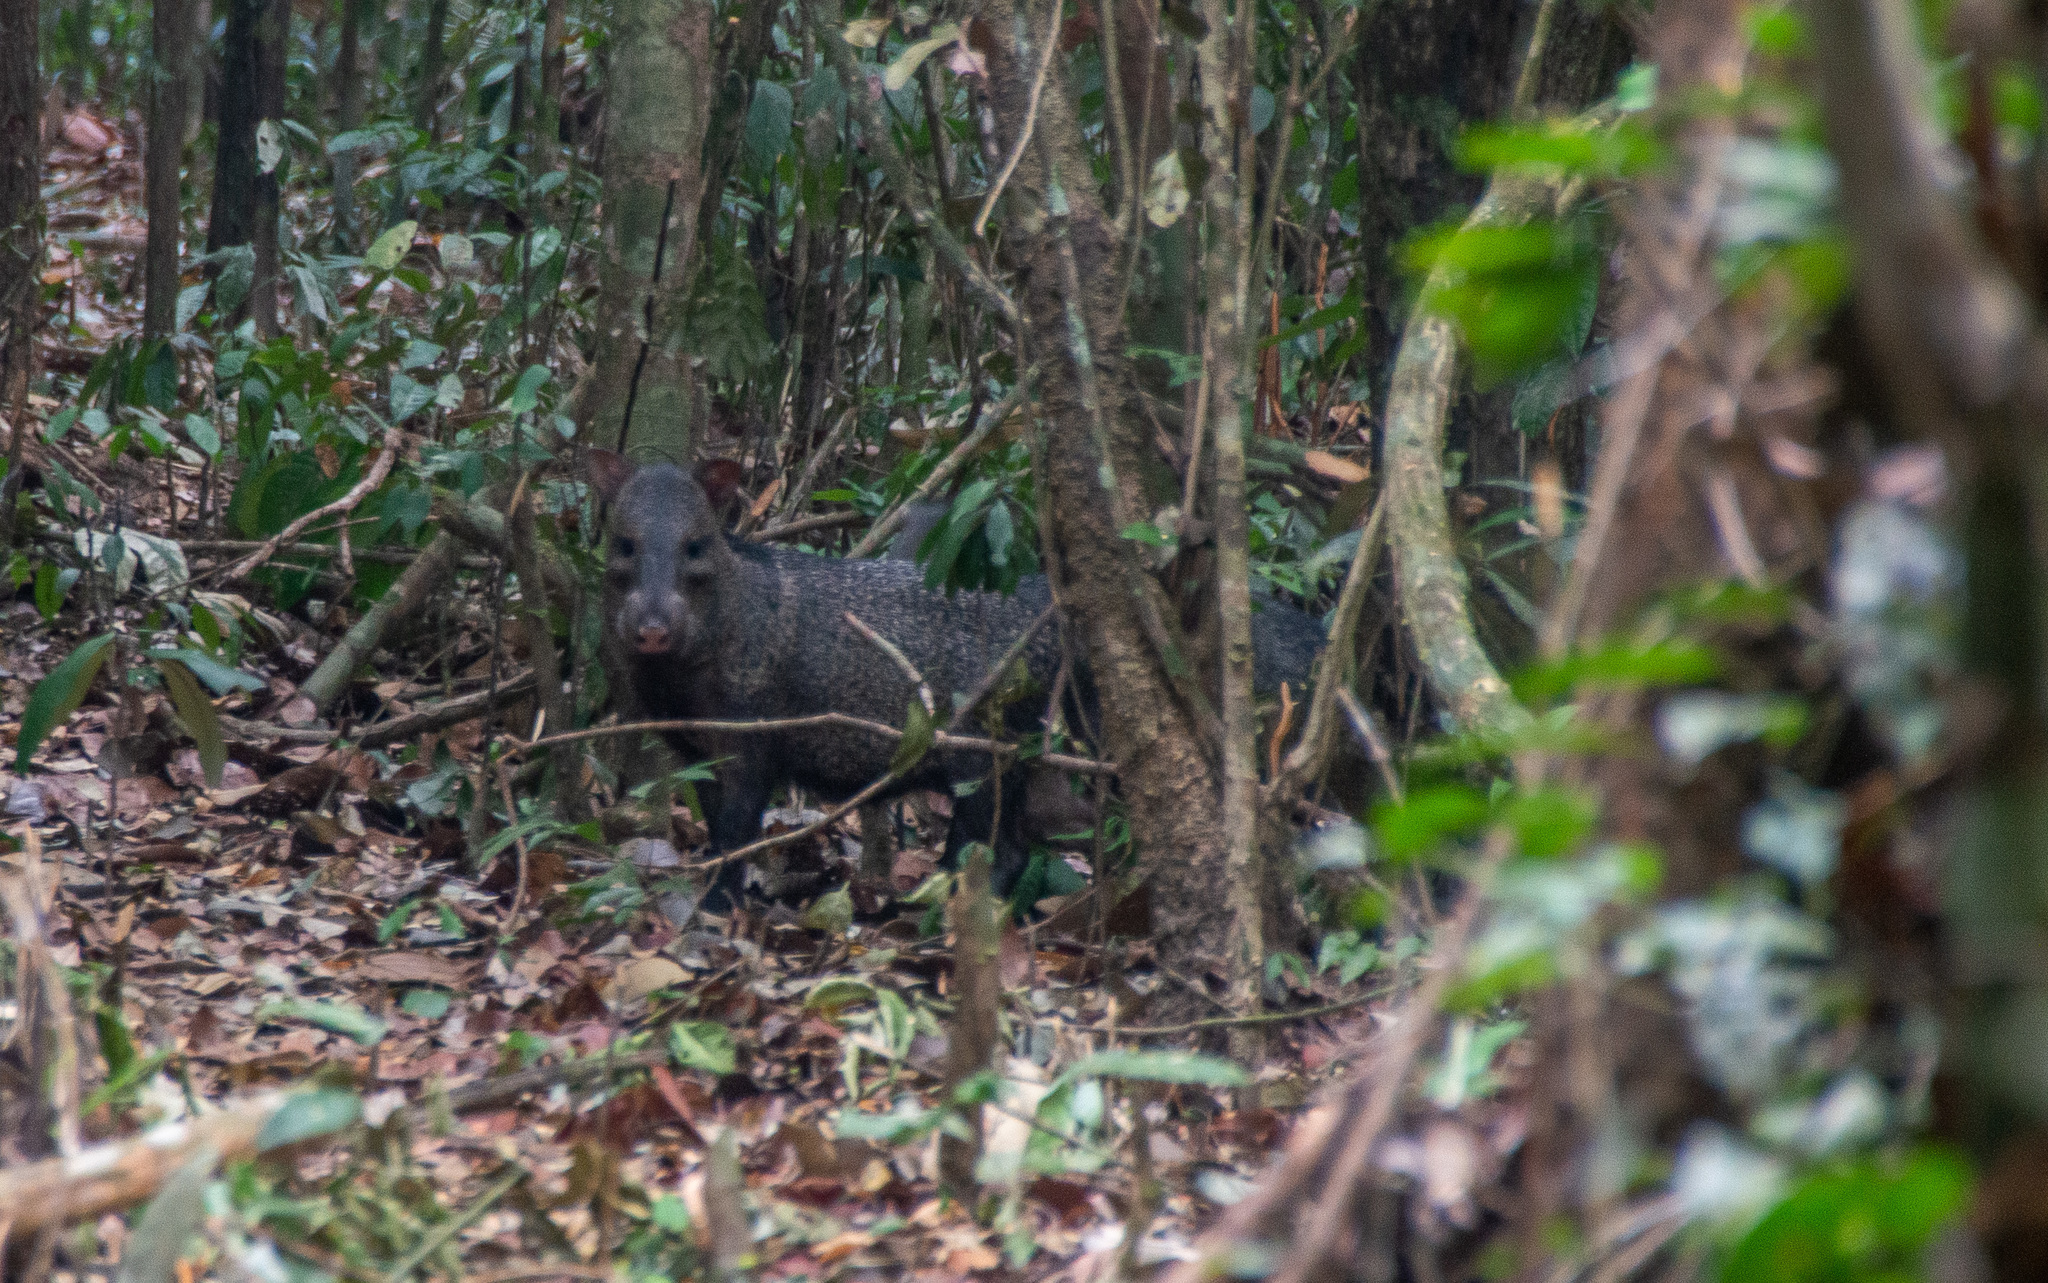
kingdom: Animalia
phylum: Chordata
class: Mammalia
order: Artiodactyla
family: Tayassuidae
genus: Pecari
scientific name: Pecari tajacu
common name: Collared peccary
